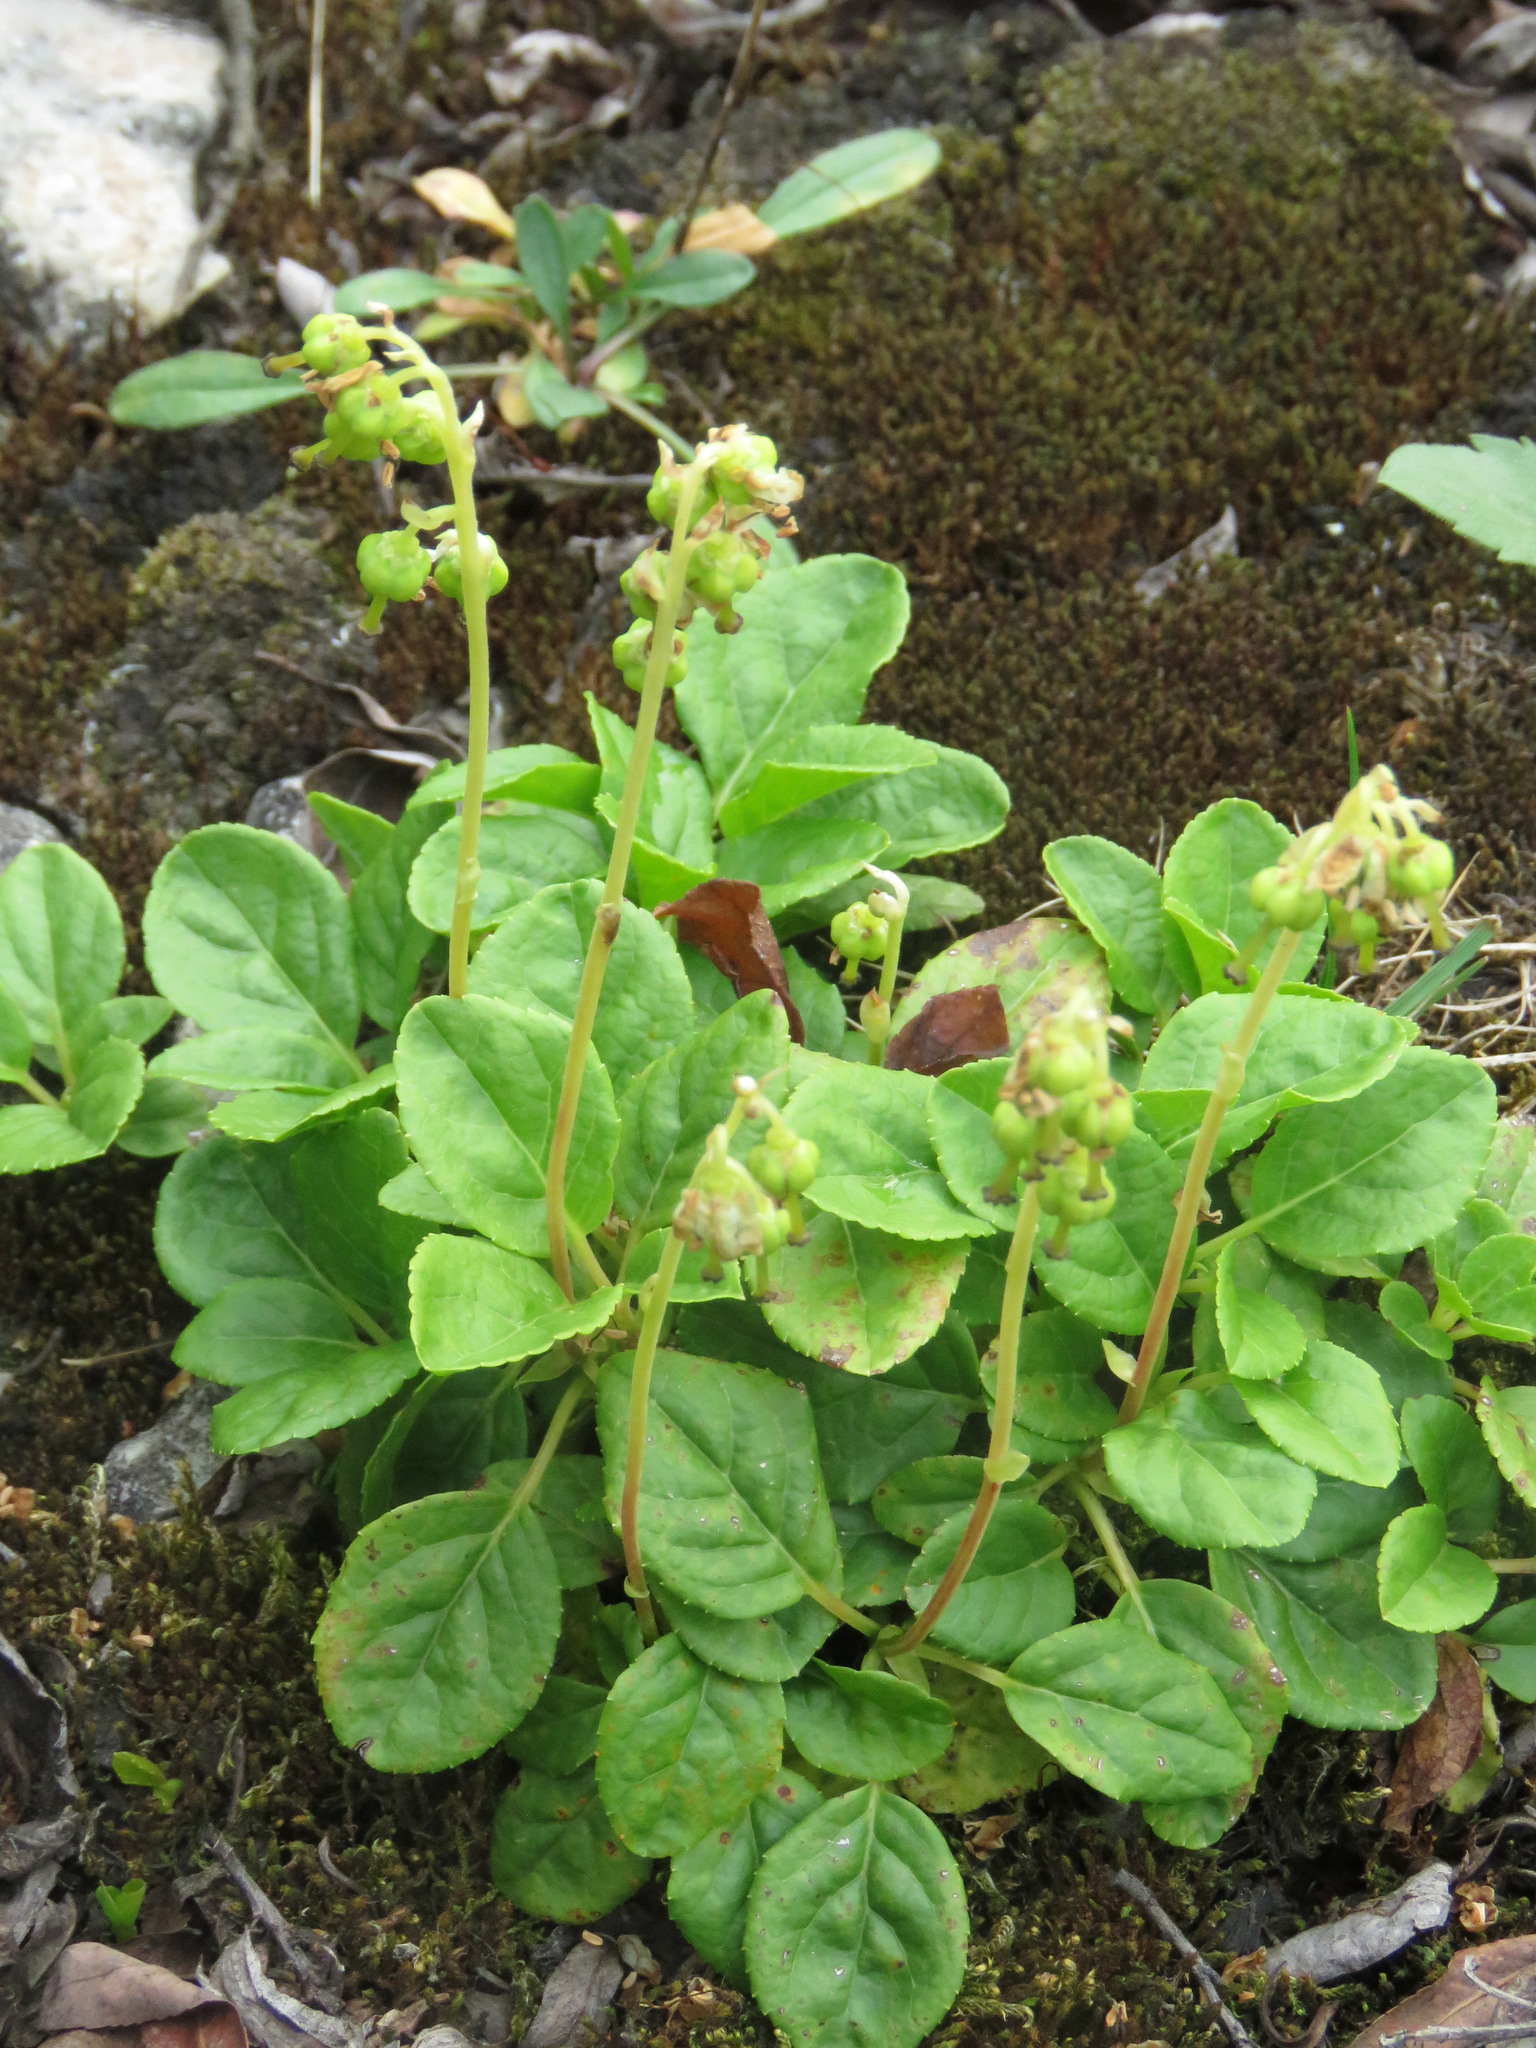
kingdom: Plantae
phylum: Tracheophyta
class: Magnoliopsida
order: Ericales
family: Ericaceae
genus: Orthilia
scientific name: Orthilia secunda
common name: One-sided orthilia
